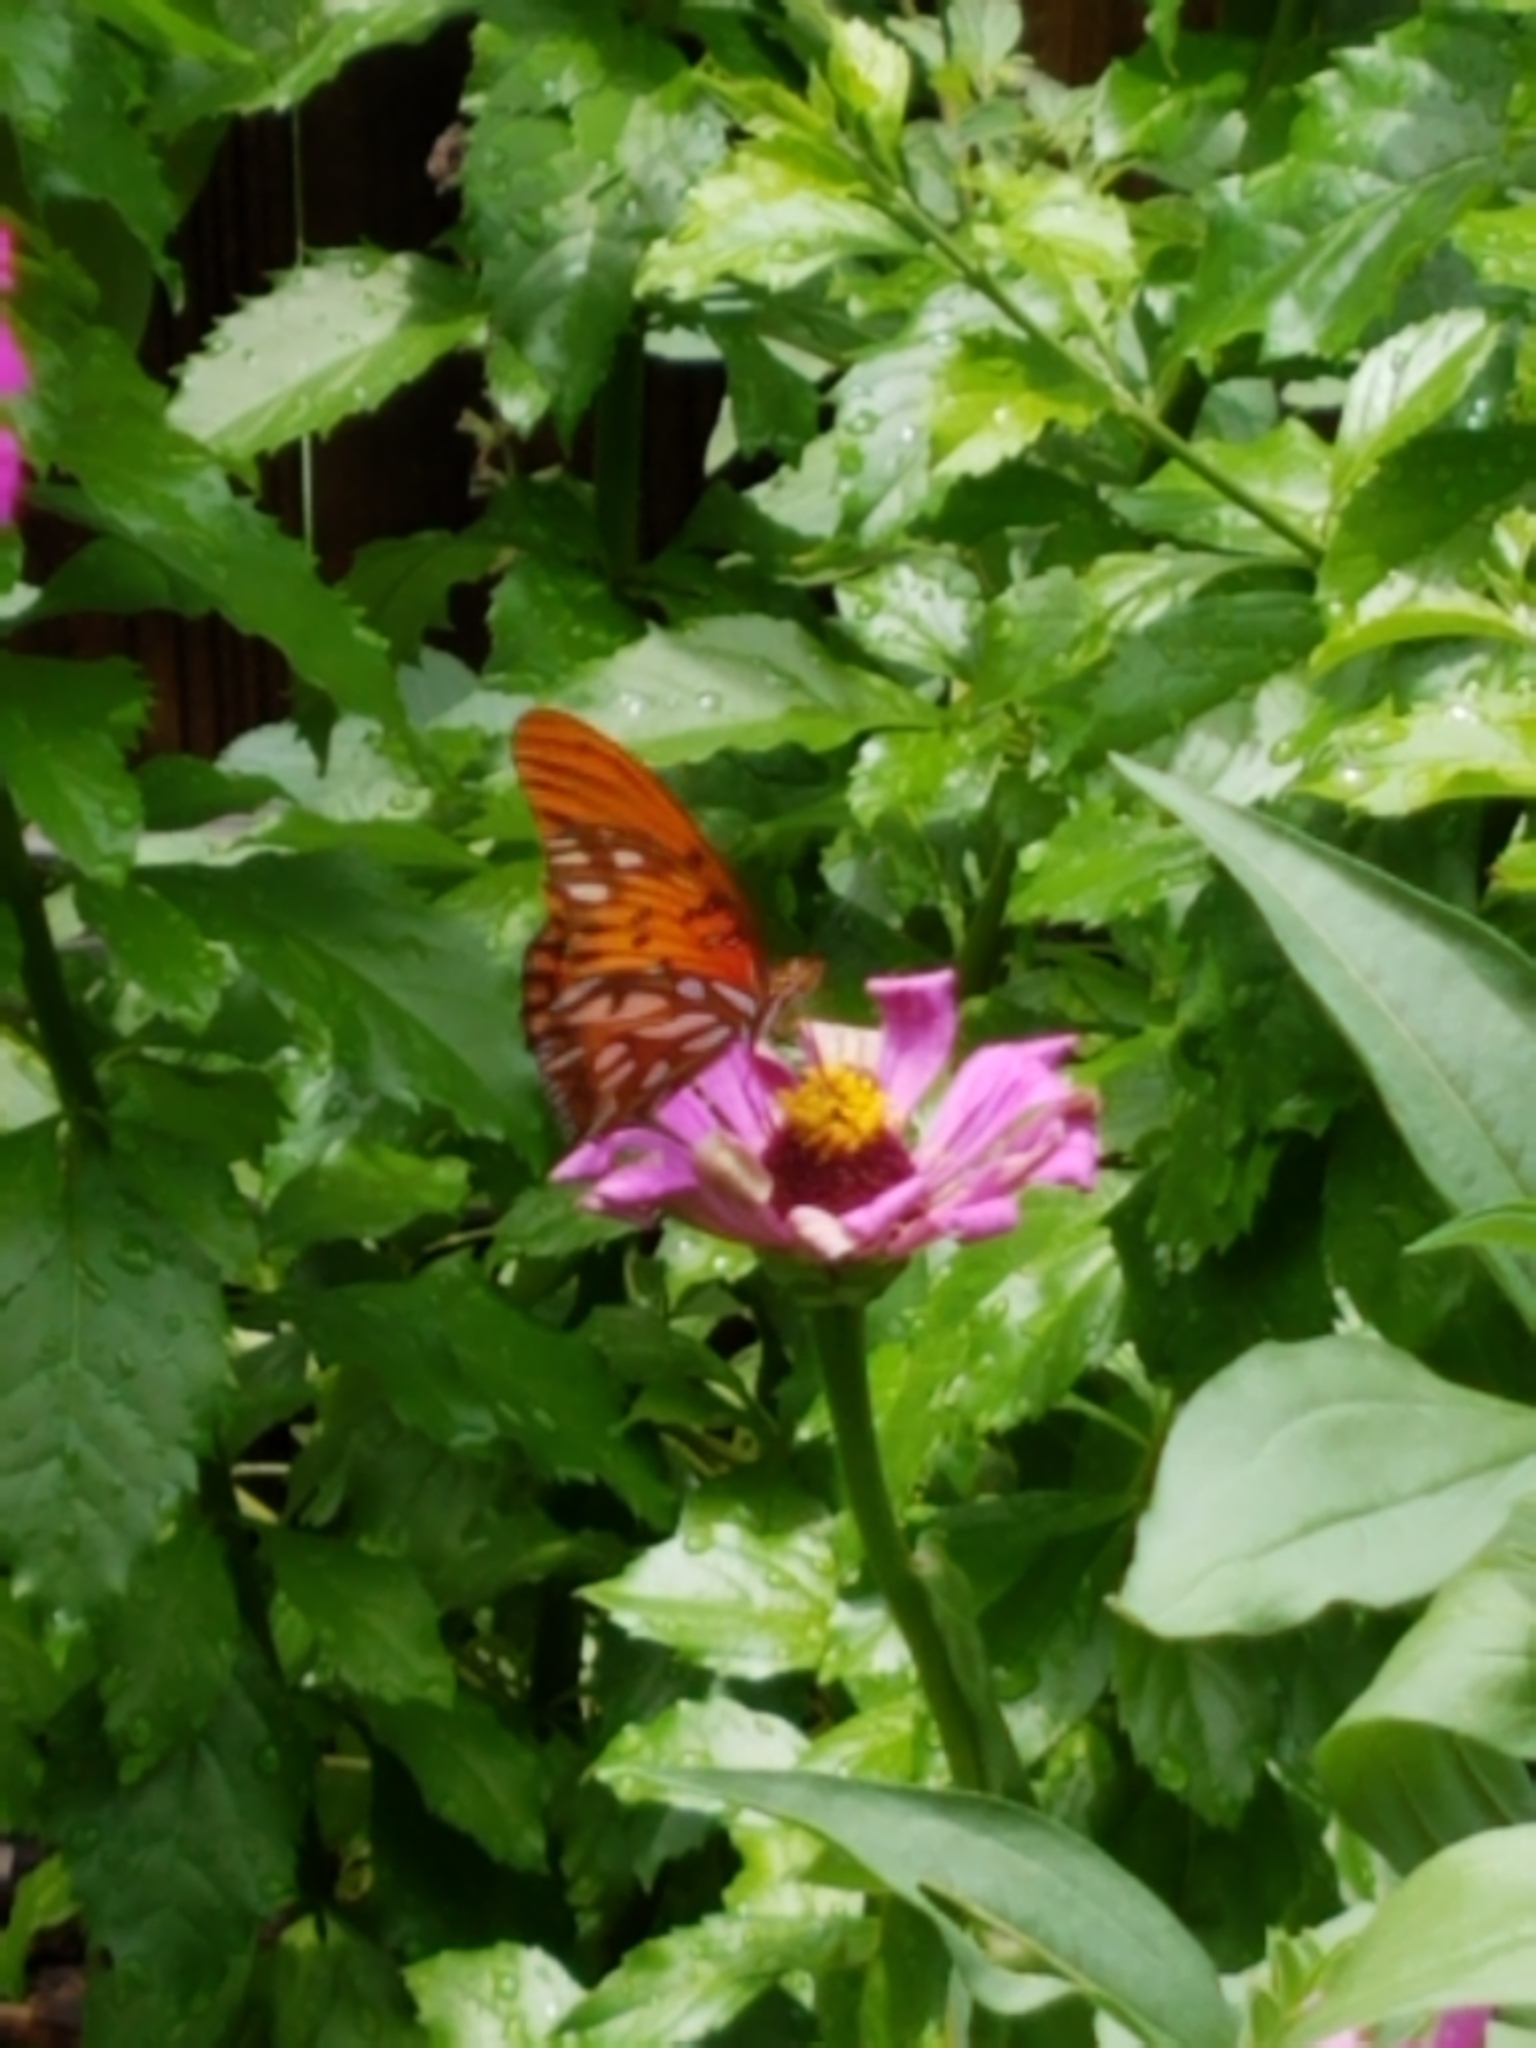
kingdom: Animalia
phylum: Arthropoda
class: Insecta
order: Lepidoptera
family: Nymphalidae
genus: Dione
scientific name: Dione vanillae
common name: Gulf fritillary
